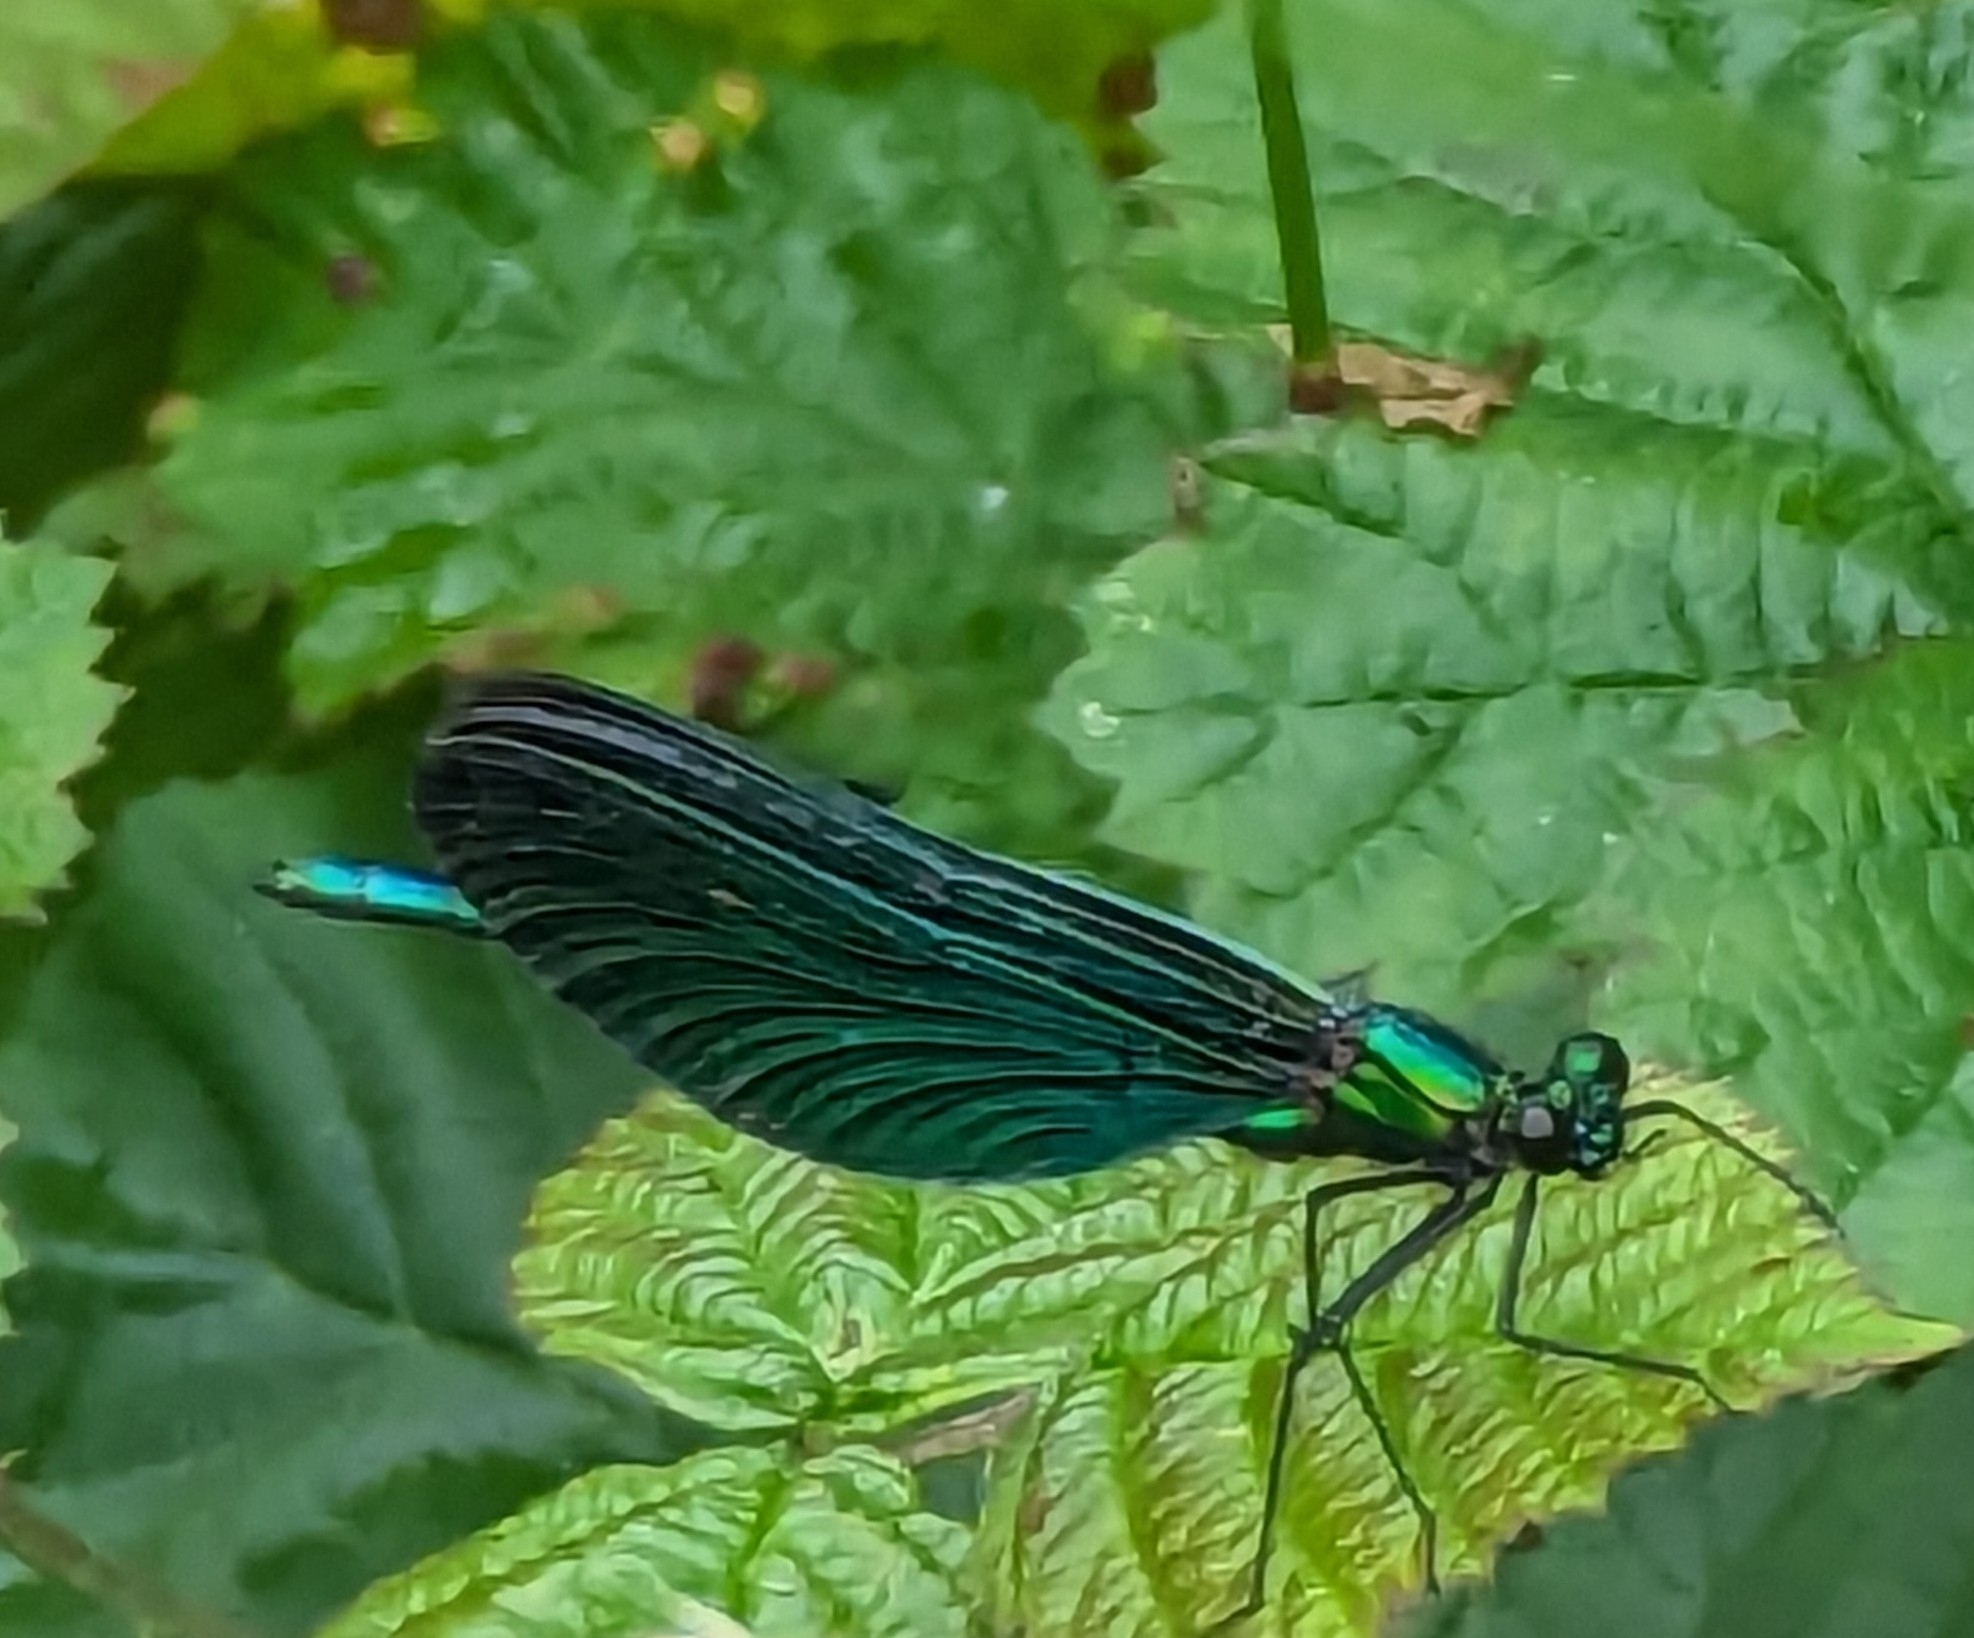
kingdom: Animalia
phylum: Arthropoda
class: Insecta
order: Odonata
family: Calopterygidae
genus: Calopteryx
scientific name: Calopteryx virgo
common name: Beautiful demoiselle
